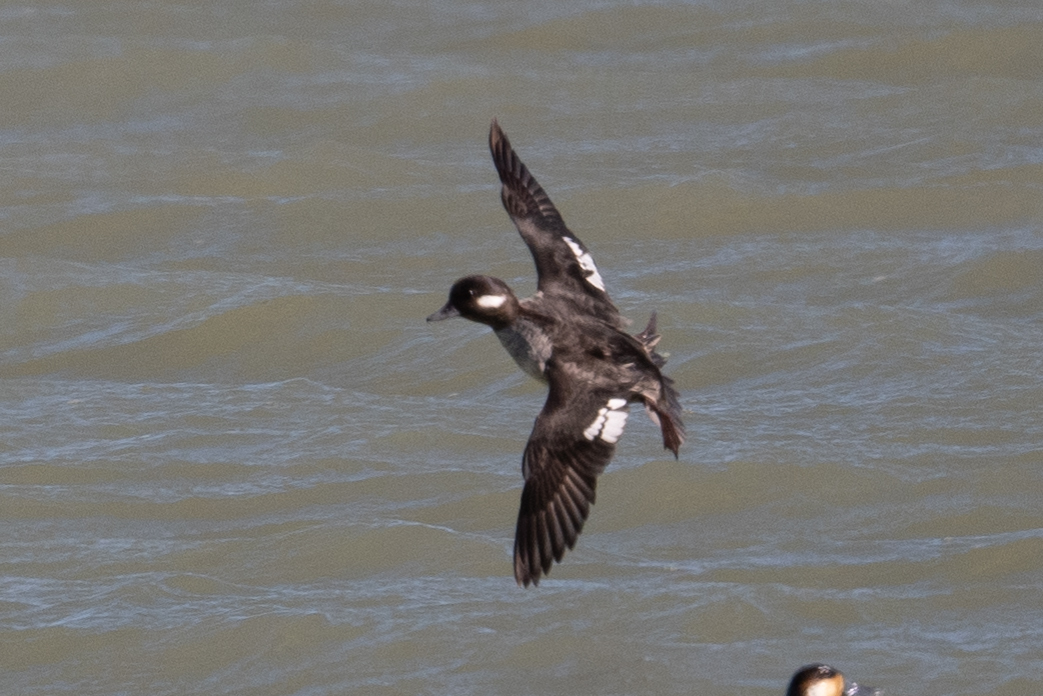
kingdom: Animalia
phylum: Chordata
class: Aves
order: Anseriformes
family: Anatidae
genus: Bucephala
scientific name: Bucephala albeola
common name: Bufflehead
